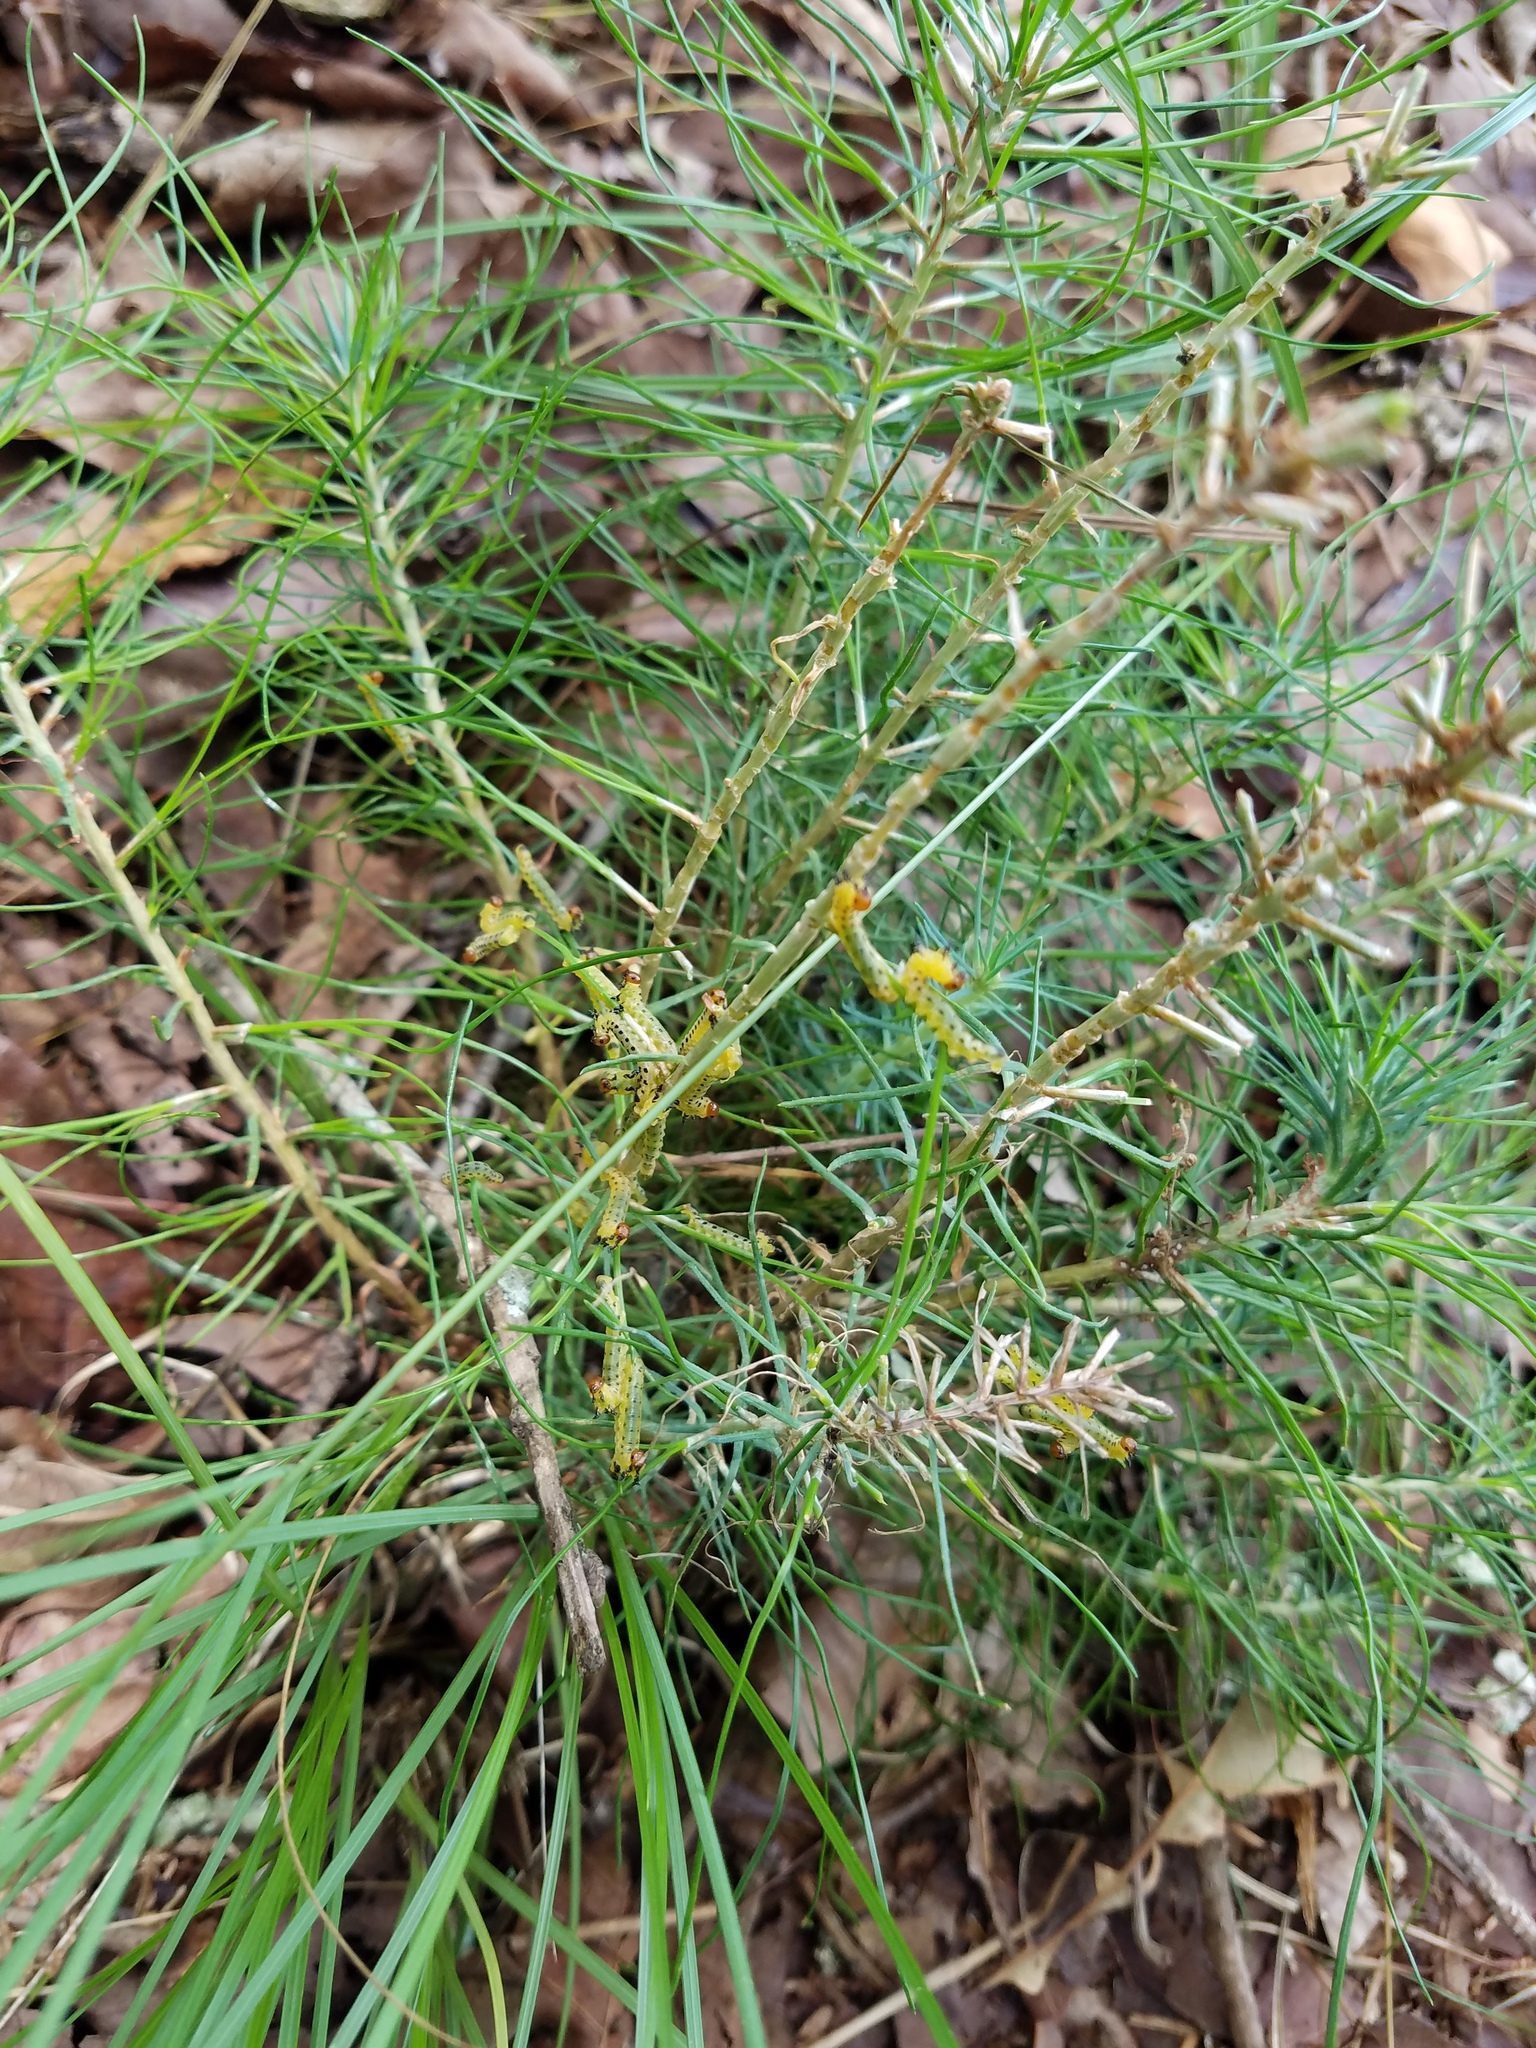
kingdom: Animalia
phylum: Arthropoda
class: Insecta
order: Hymenoptera
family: Diprionidae
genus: Neodiprion
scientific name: Neodiprion lecontei
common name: Redheaded pine sawfly
